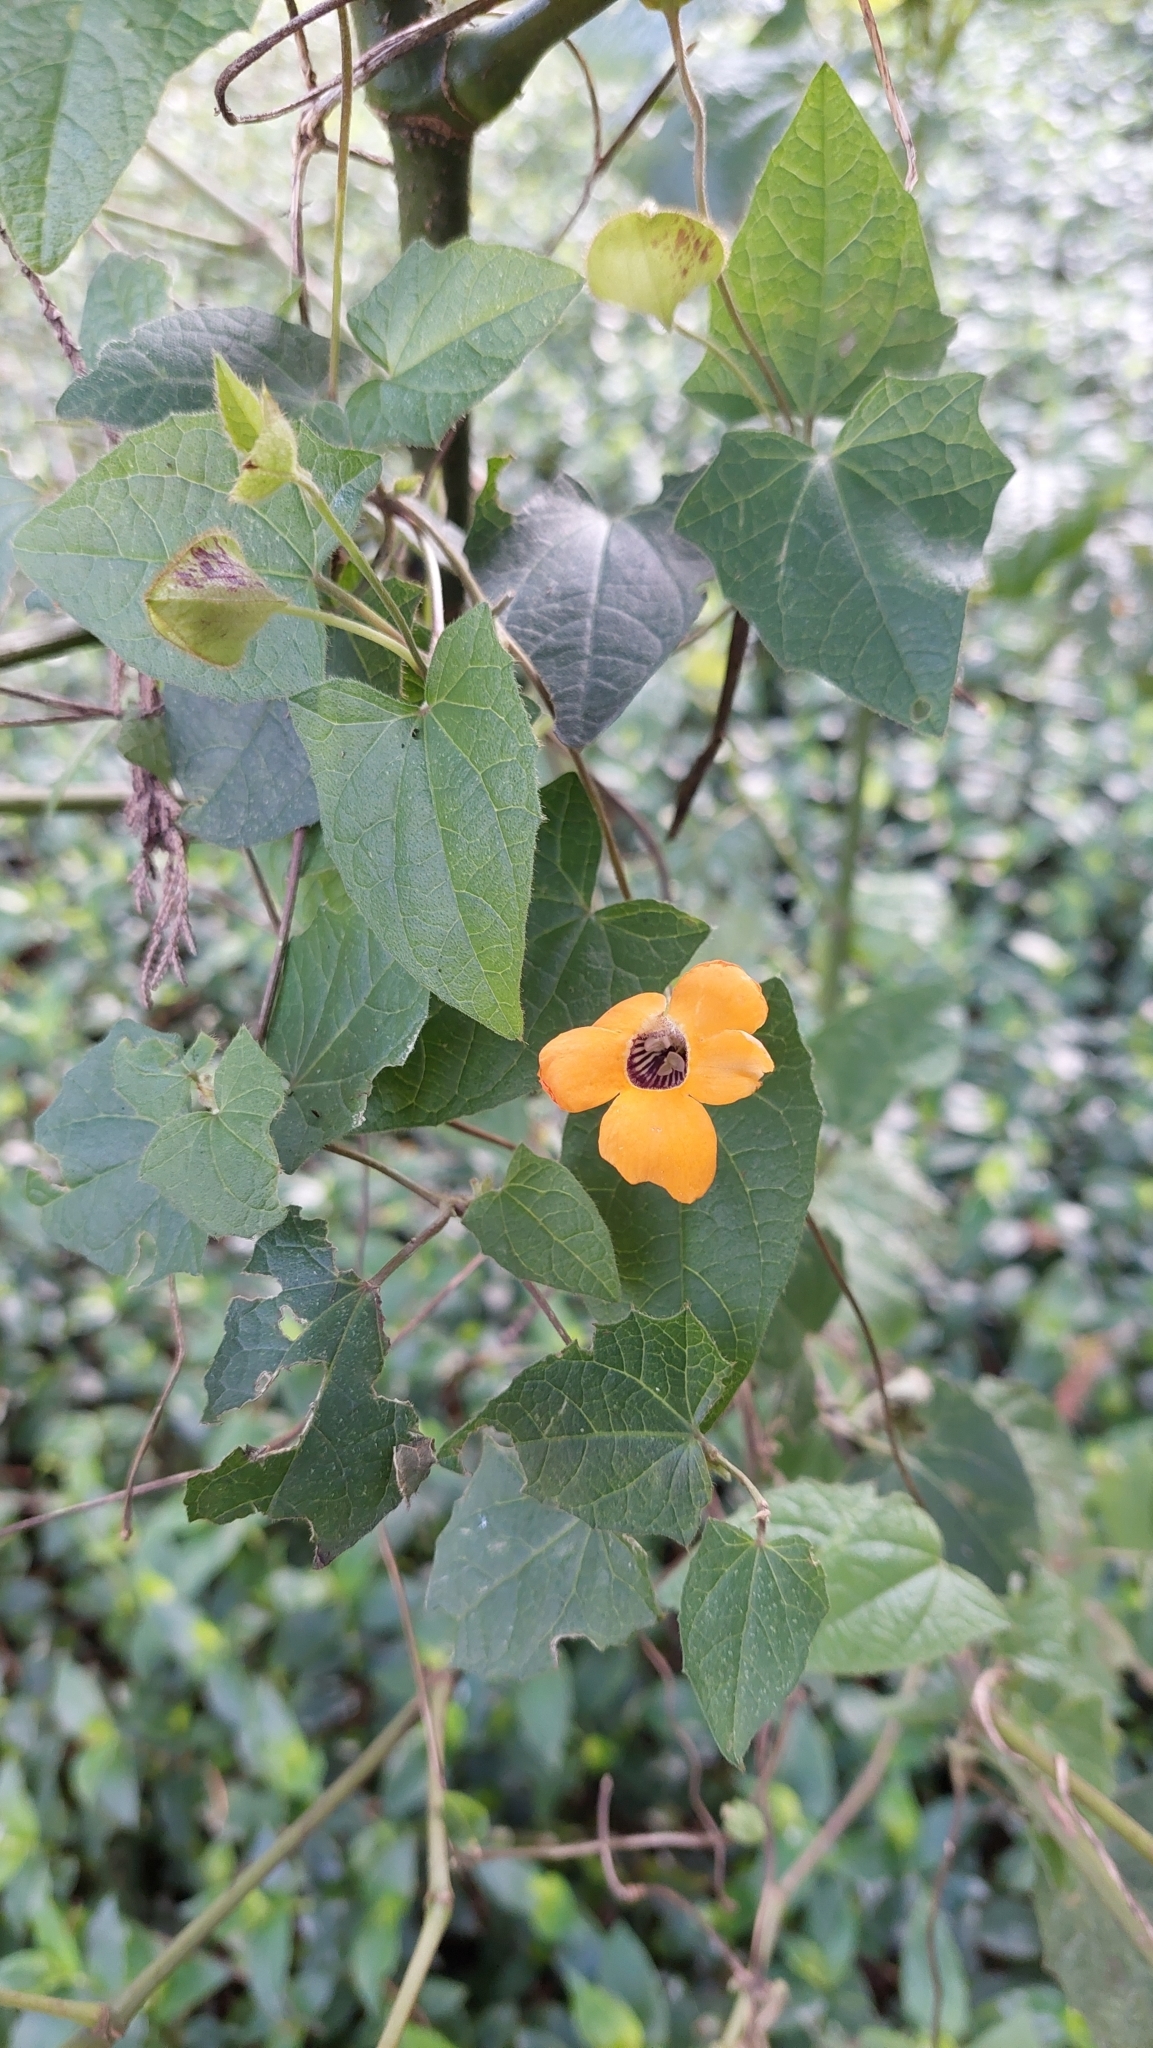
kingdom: Plantae
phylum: Tracheophyta
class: Magnoliopsida
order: Lamiales
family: Acanthaceae
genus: Thunbergia
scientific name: Thunbergia alata
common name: Blackeyed susan vine
